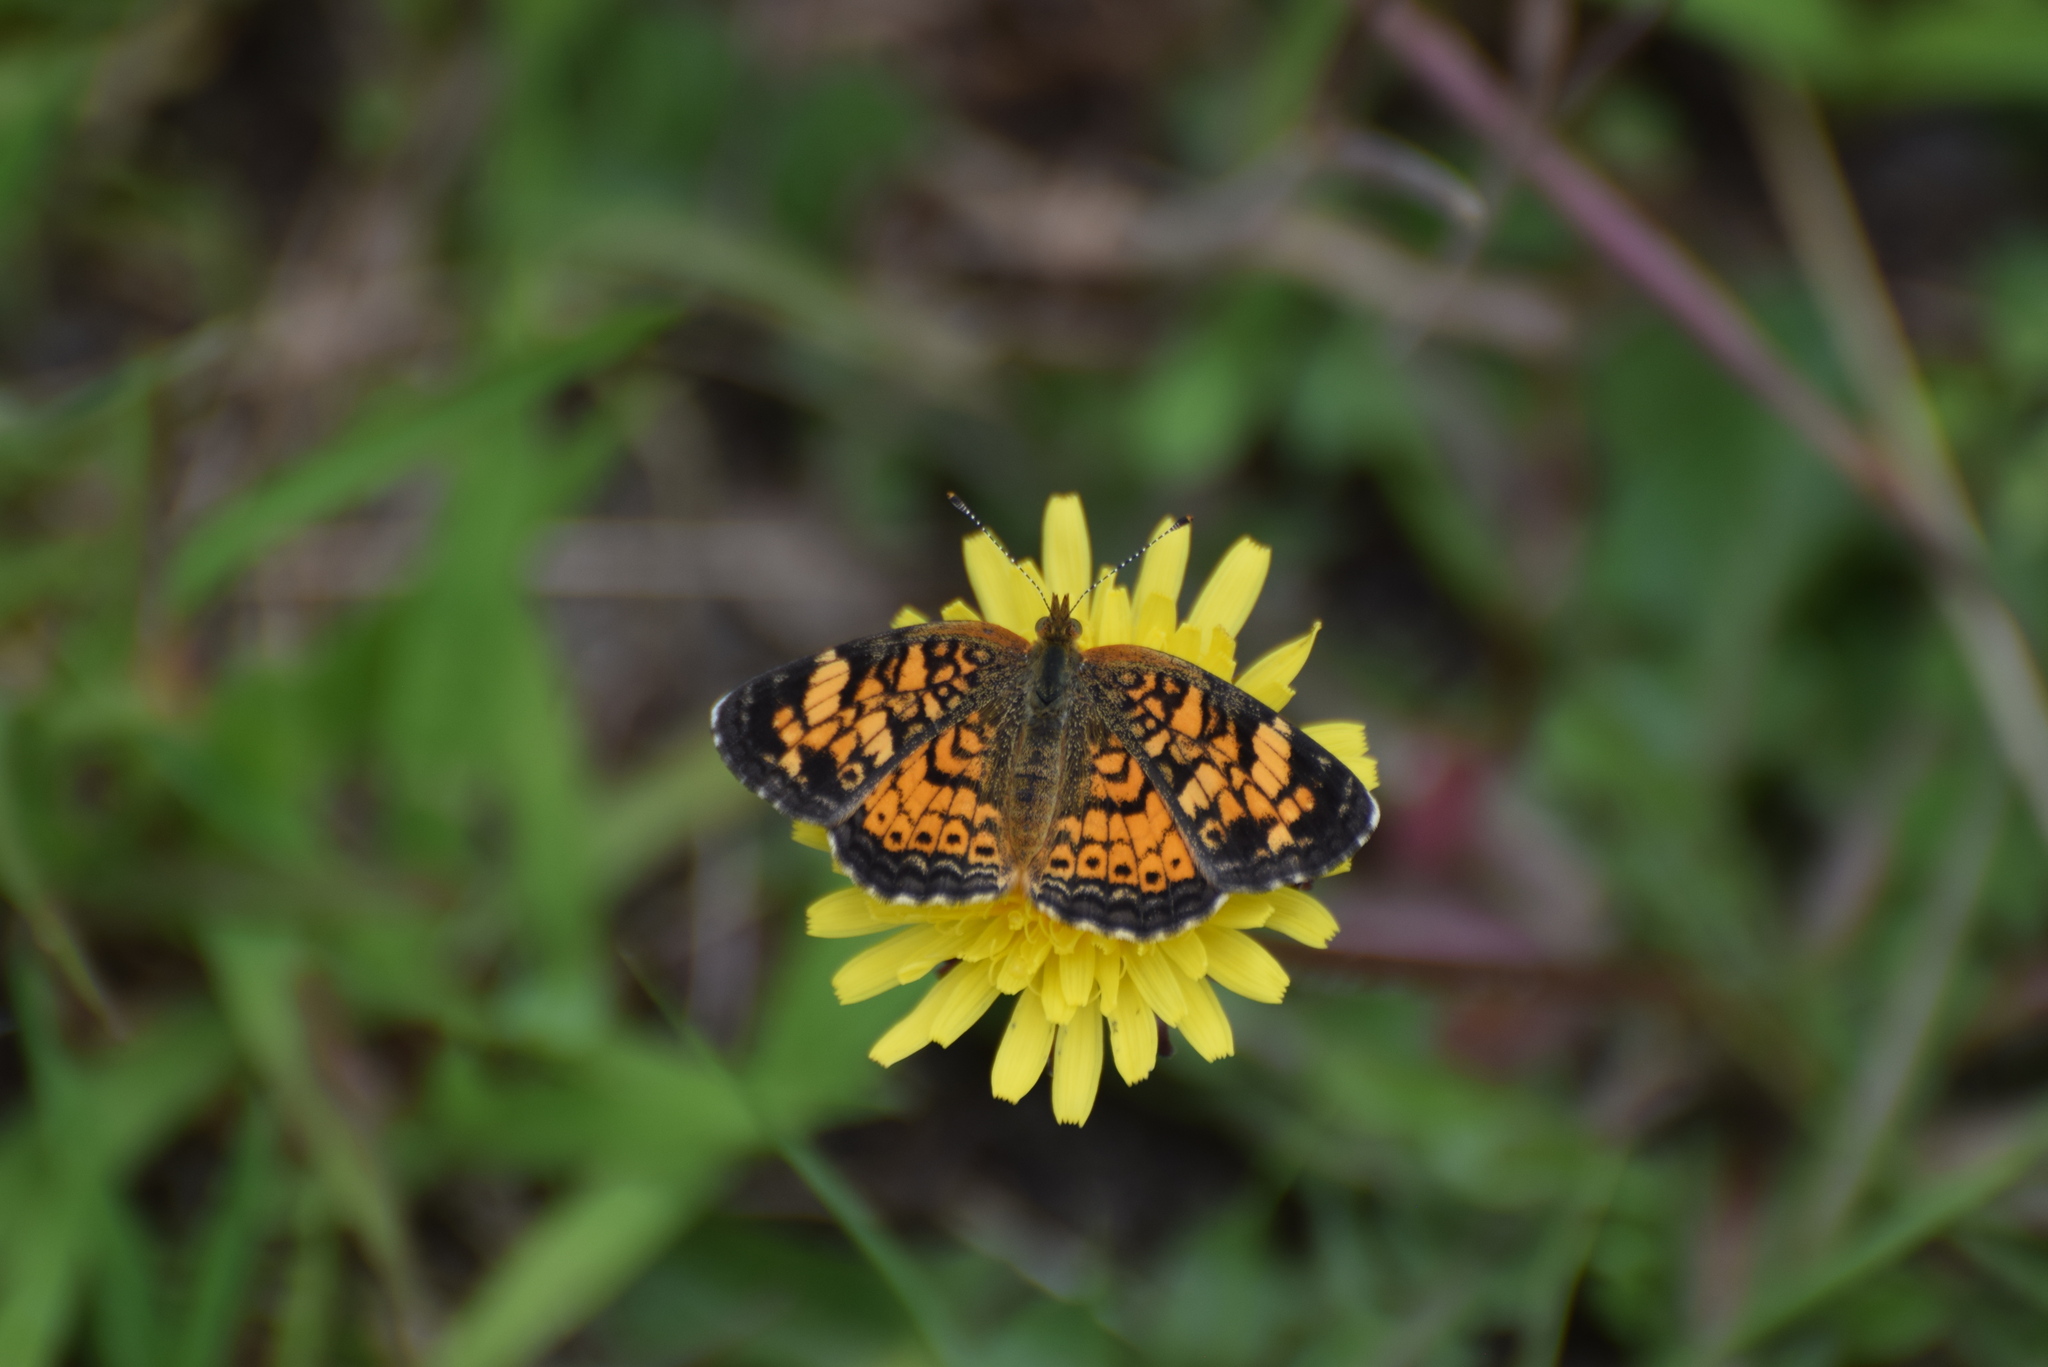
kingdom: Animalia
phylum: Arthropoda
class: Insecta
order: Lepidoptera
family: Nymphalidae
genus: Phyciodes
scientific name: Phyciodes tharos
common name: Pearl crescent
